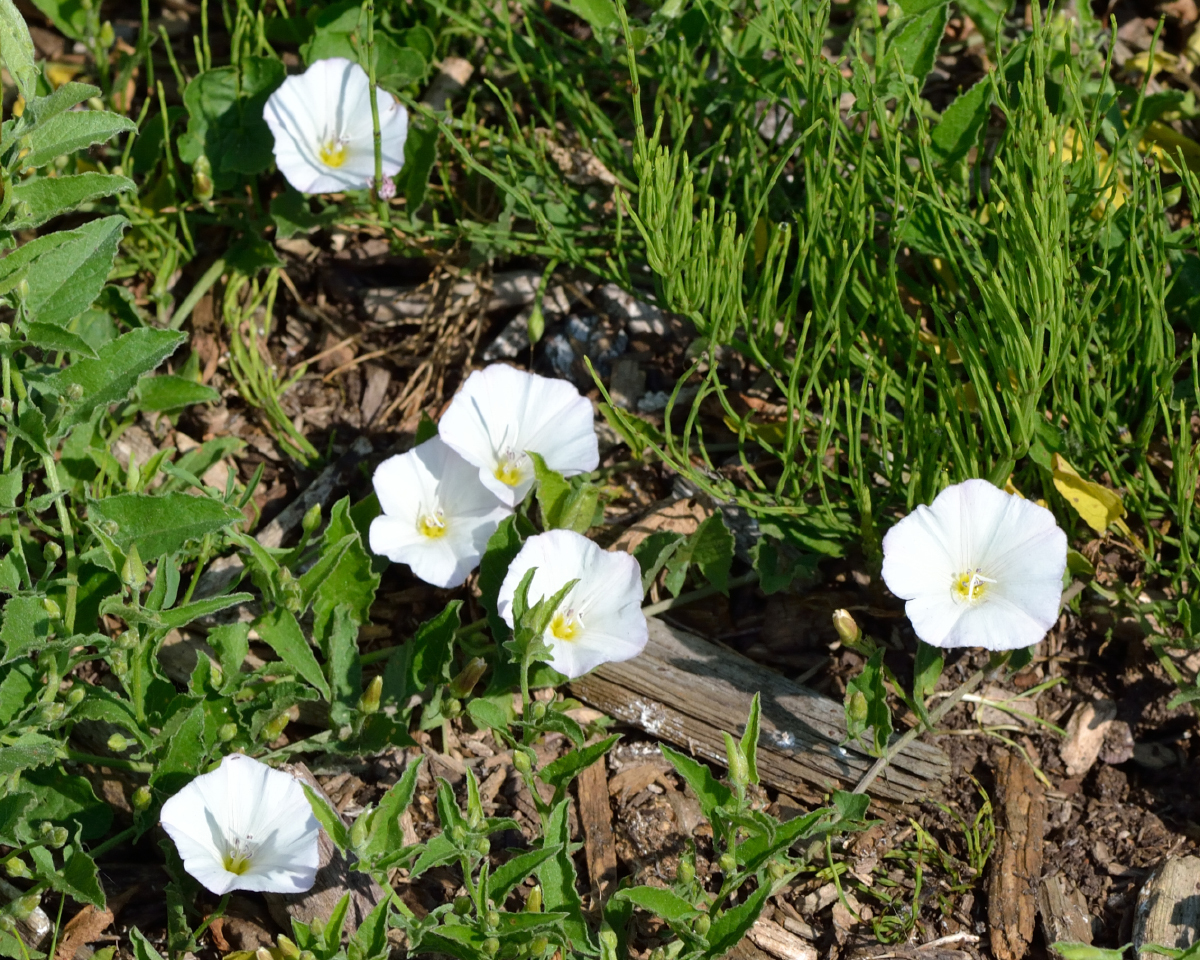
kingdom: Plantae
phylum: Tracheophyta
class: Magnoliopsida
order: Solanales
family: Convolvulaceae
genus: Convolvulus
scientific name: Convolvulus arvensis
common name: Field bindweed
